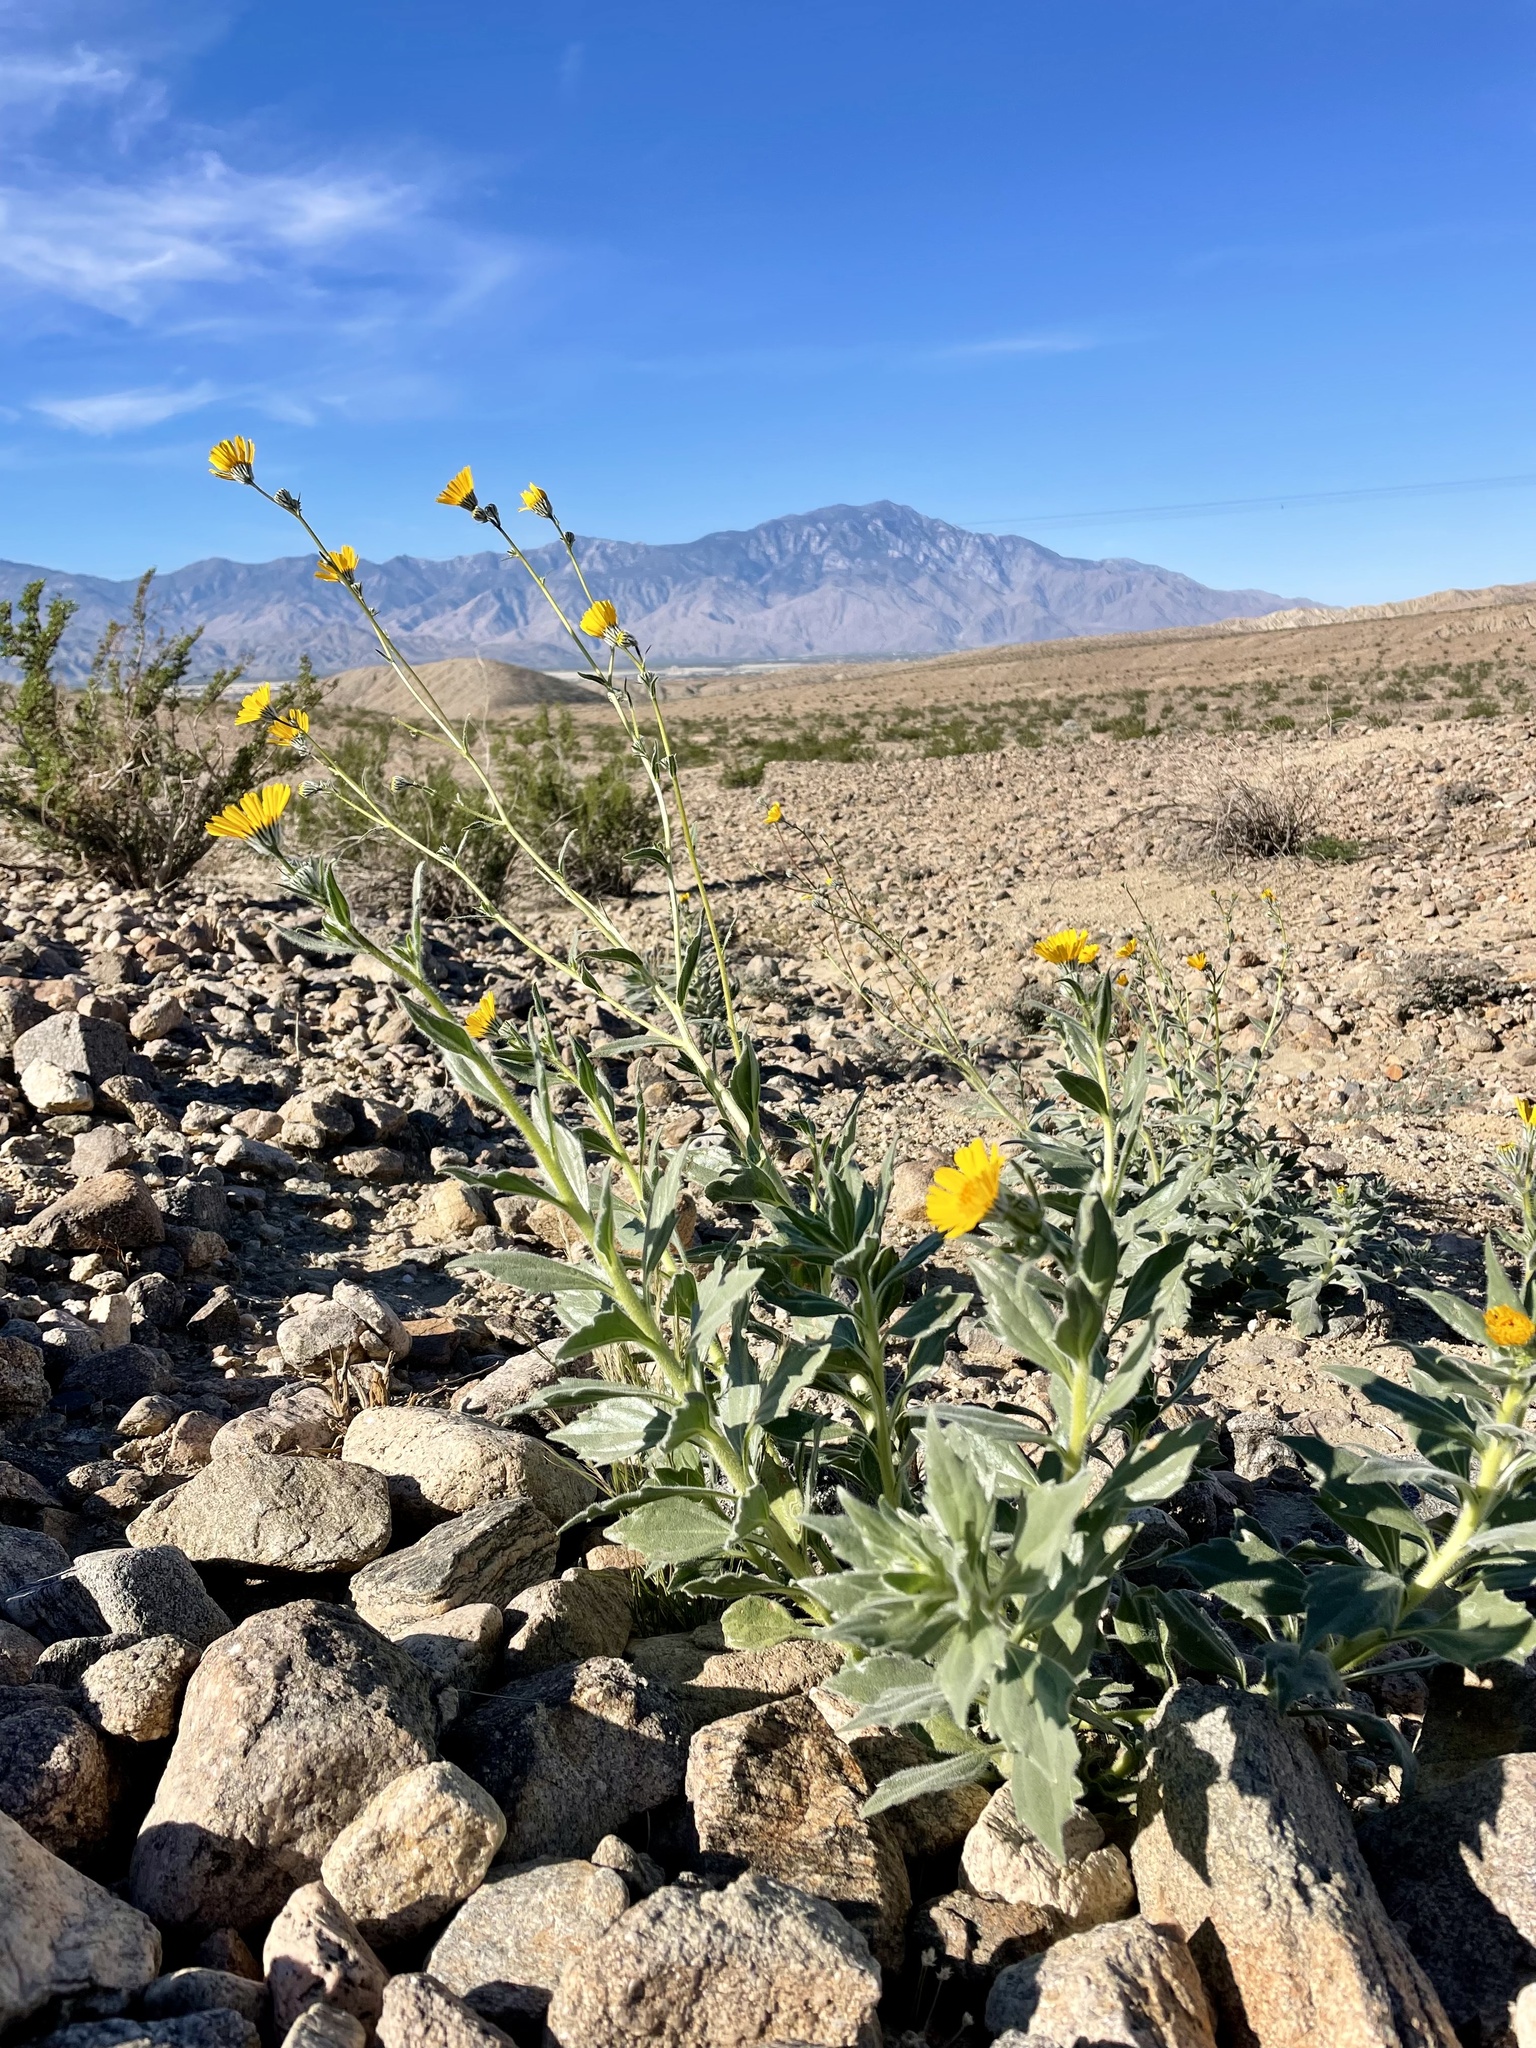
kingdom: Plantae
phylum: Tracheophyta
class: Magnoliopsida
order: Asterales
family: Asteraceae
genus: Geraea
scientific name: Geraea canescens
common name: Desert-gold
